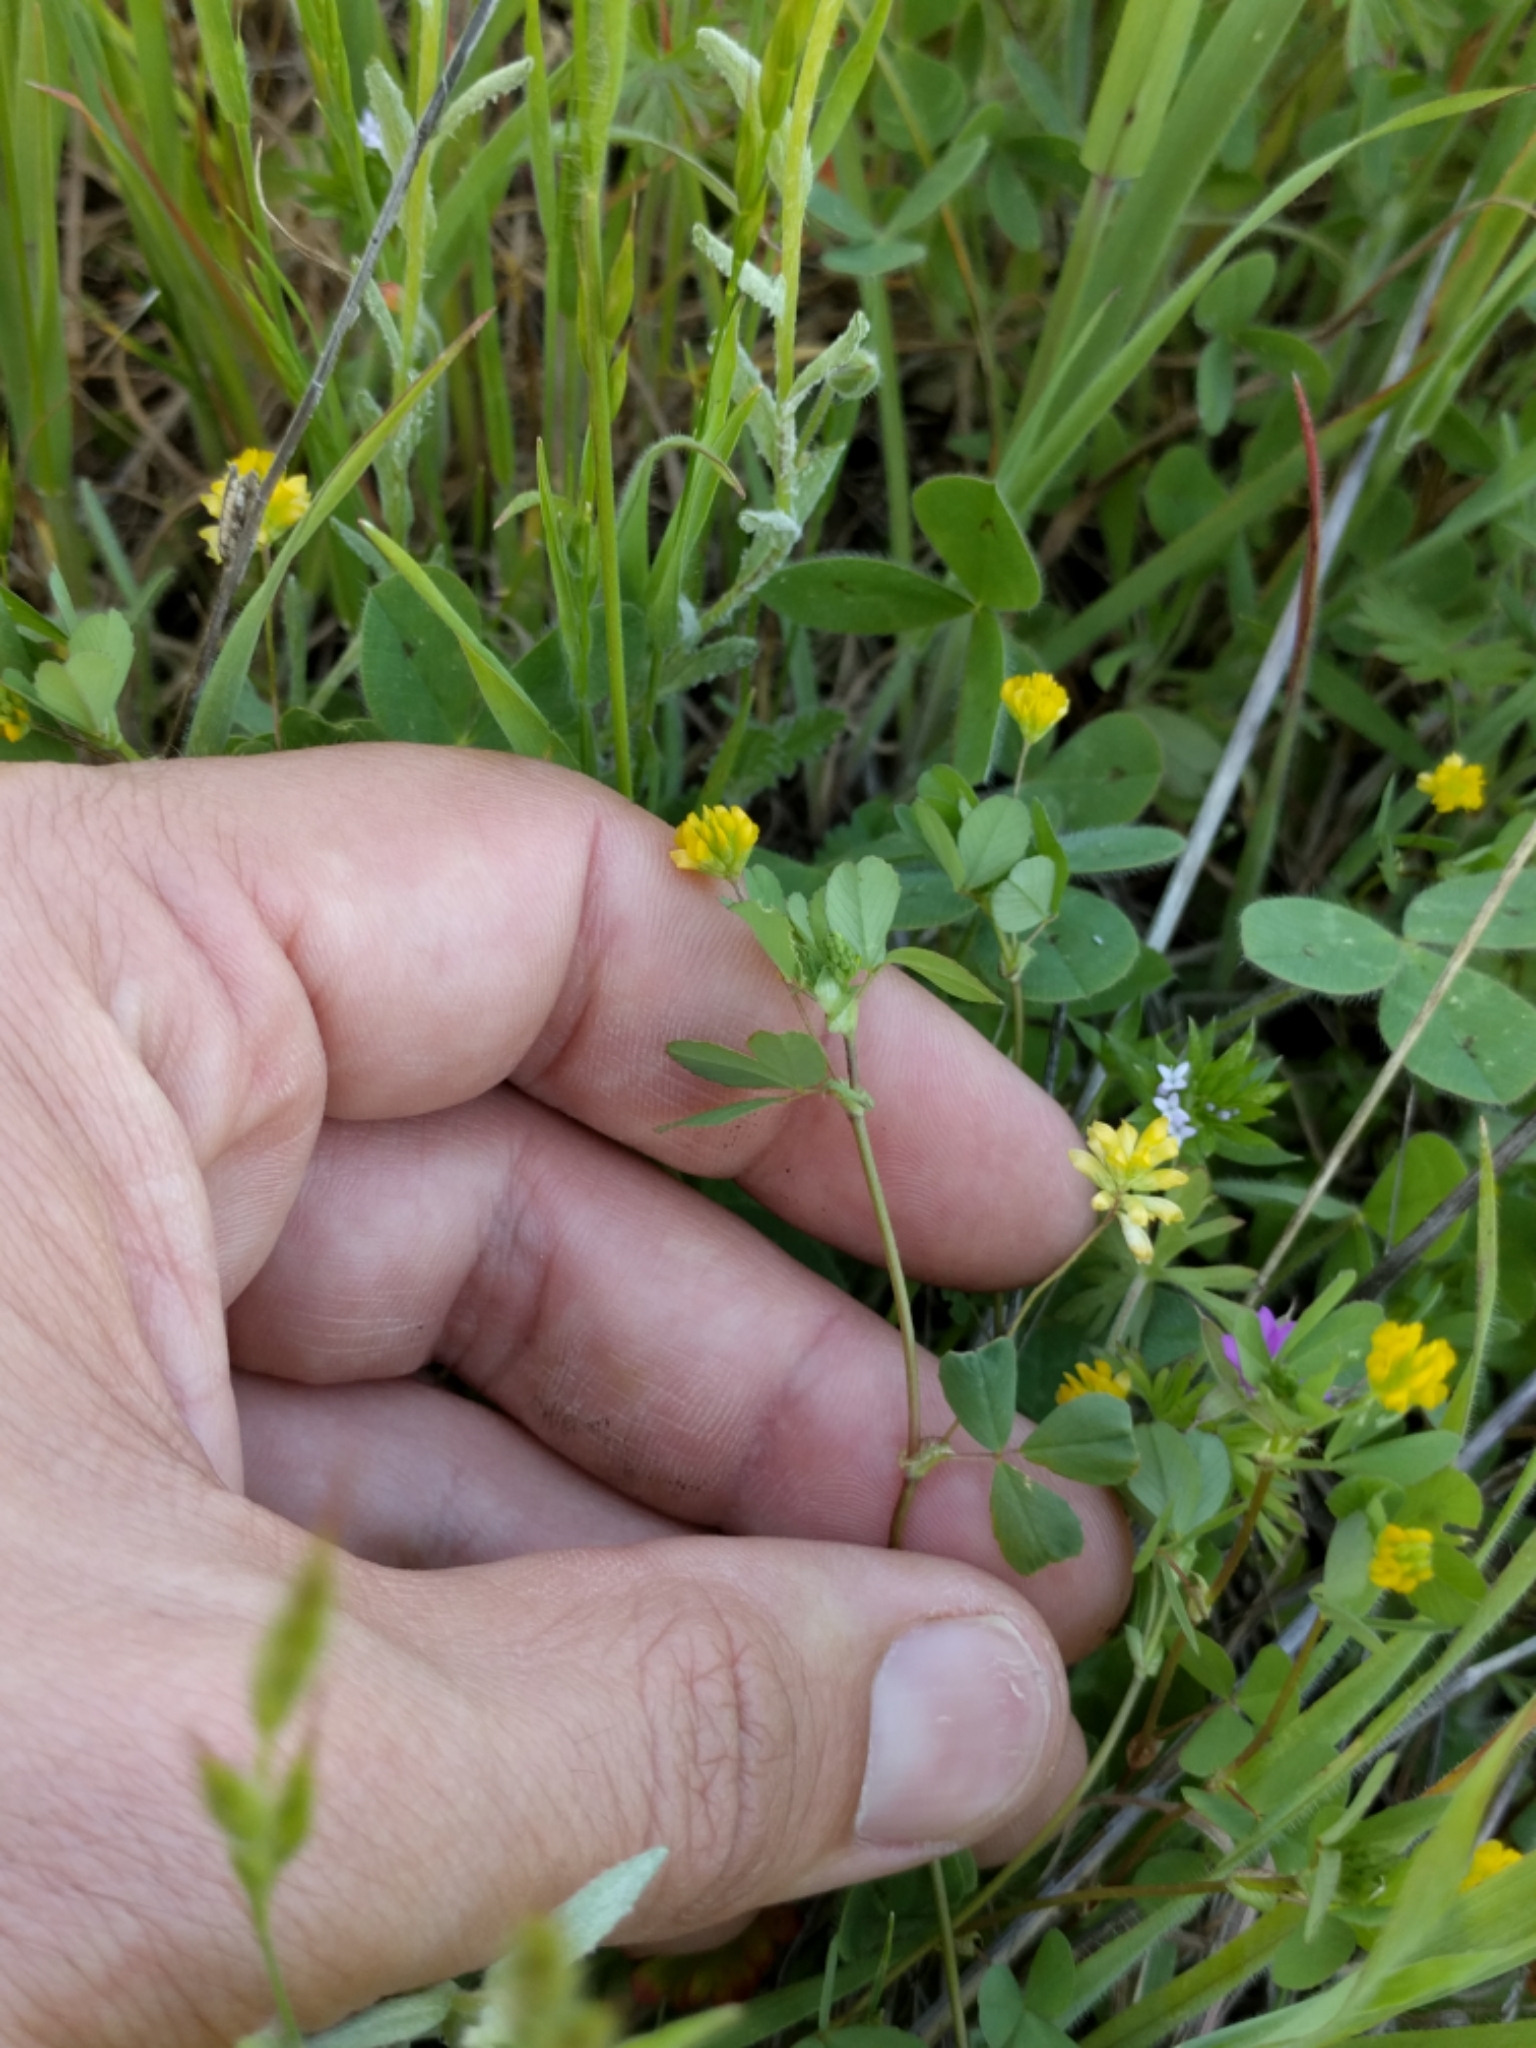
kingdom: Plantae
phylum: Tracheophyta
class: Magnoliopsida
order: Fabales
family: Fabaceae
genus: Trifolium
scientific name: Trifolium dubium
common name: Suckling clover
